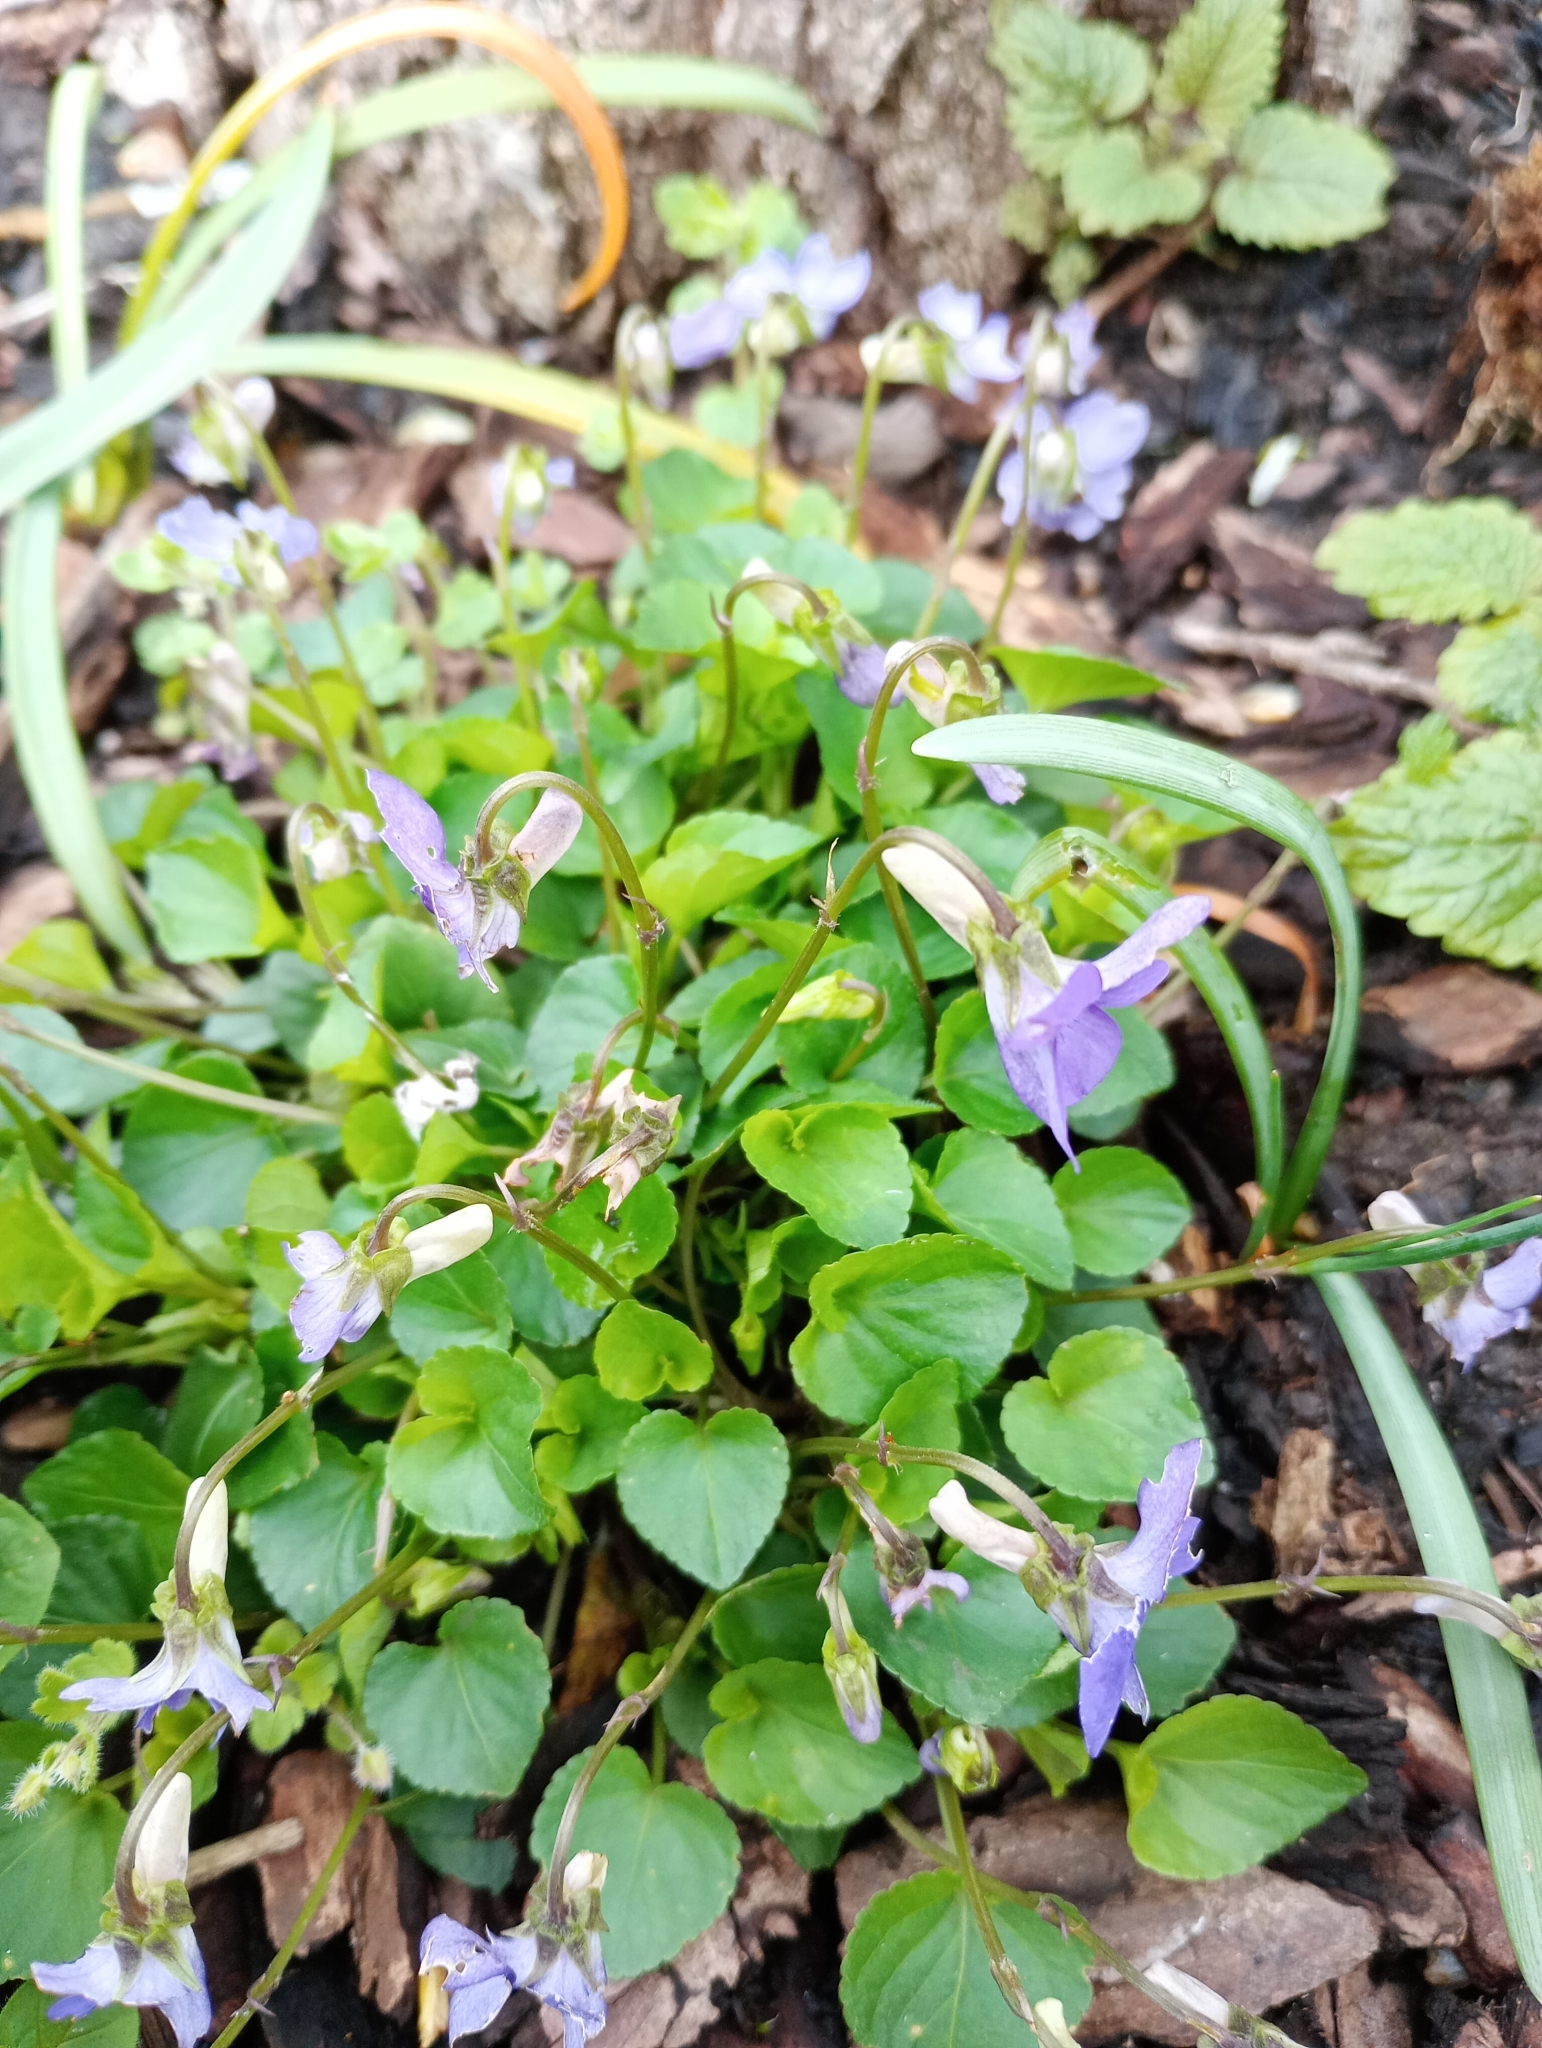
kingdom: Plantae
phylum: Tracheophyta
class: Magnoliopsida
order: Malpighiales
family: Violaceae
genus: Viola
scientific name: Viola riviniana
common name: Common dog-violet
